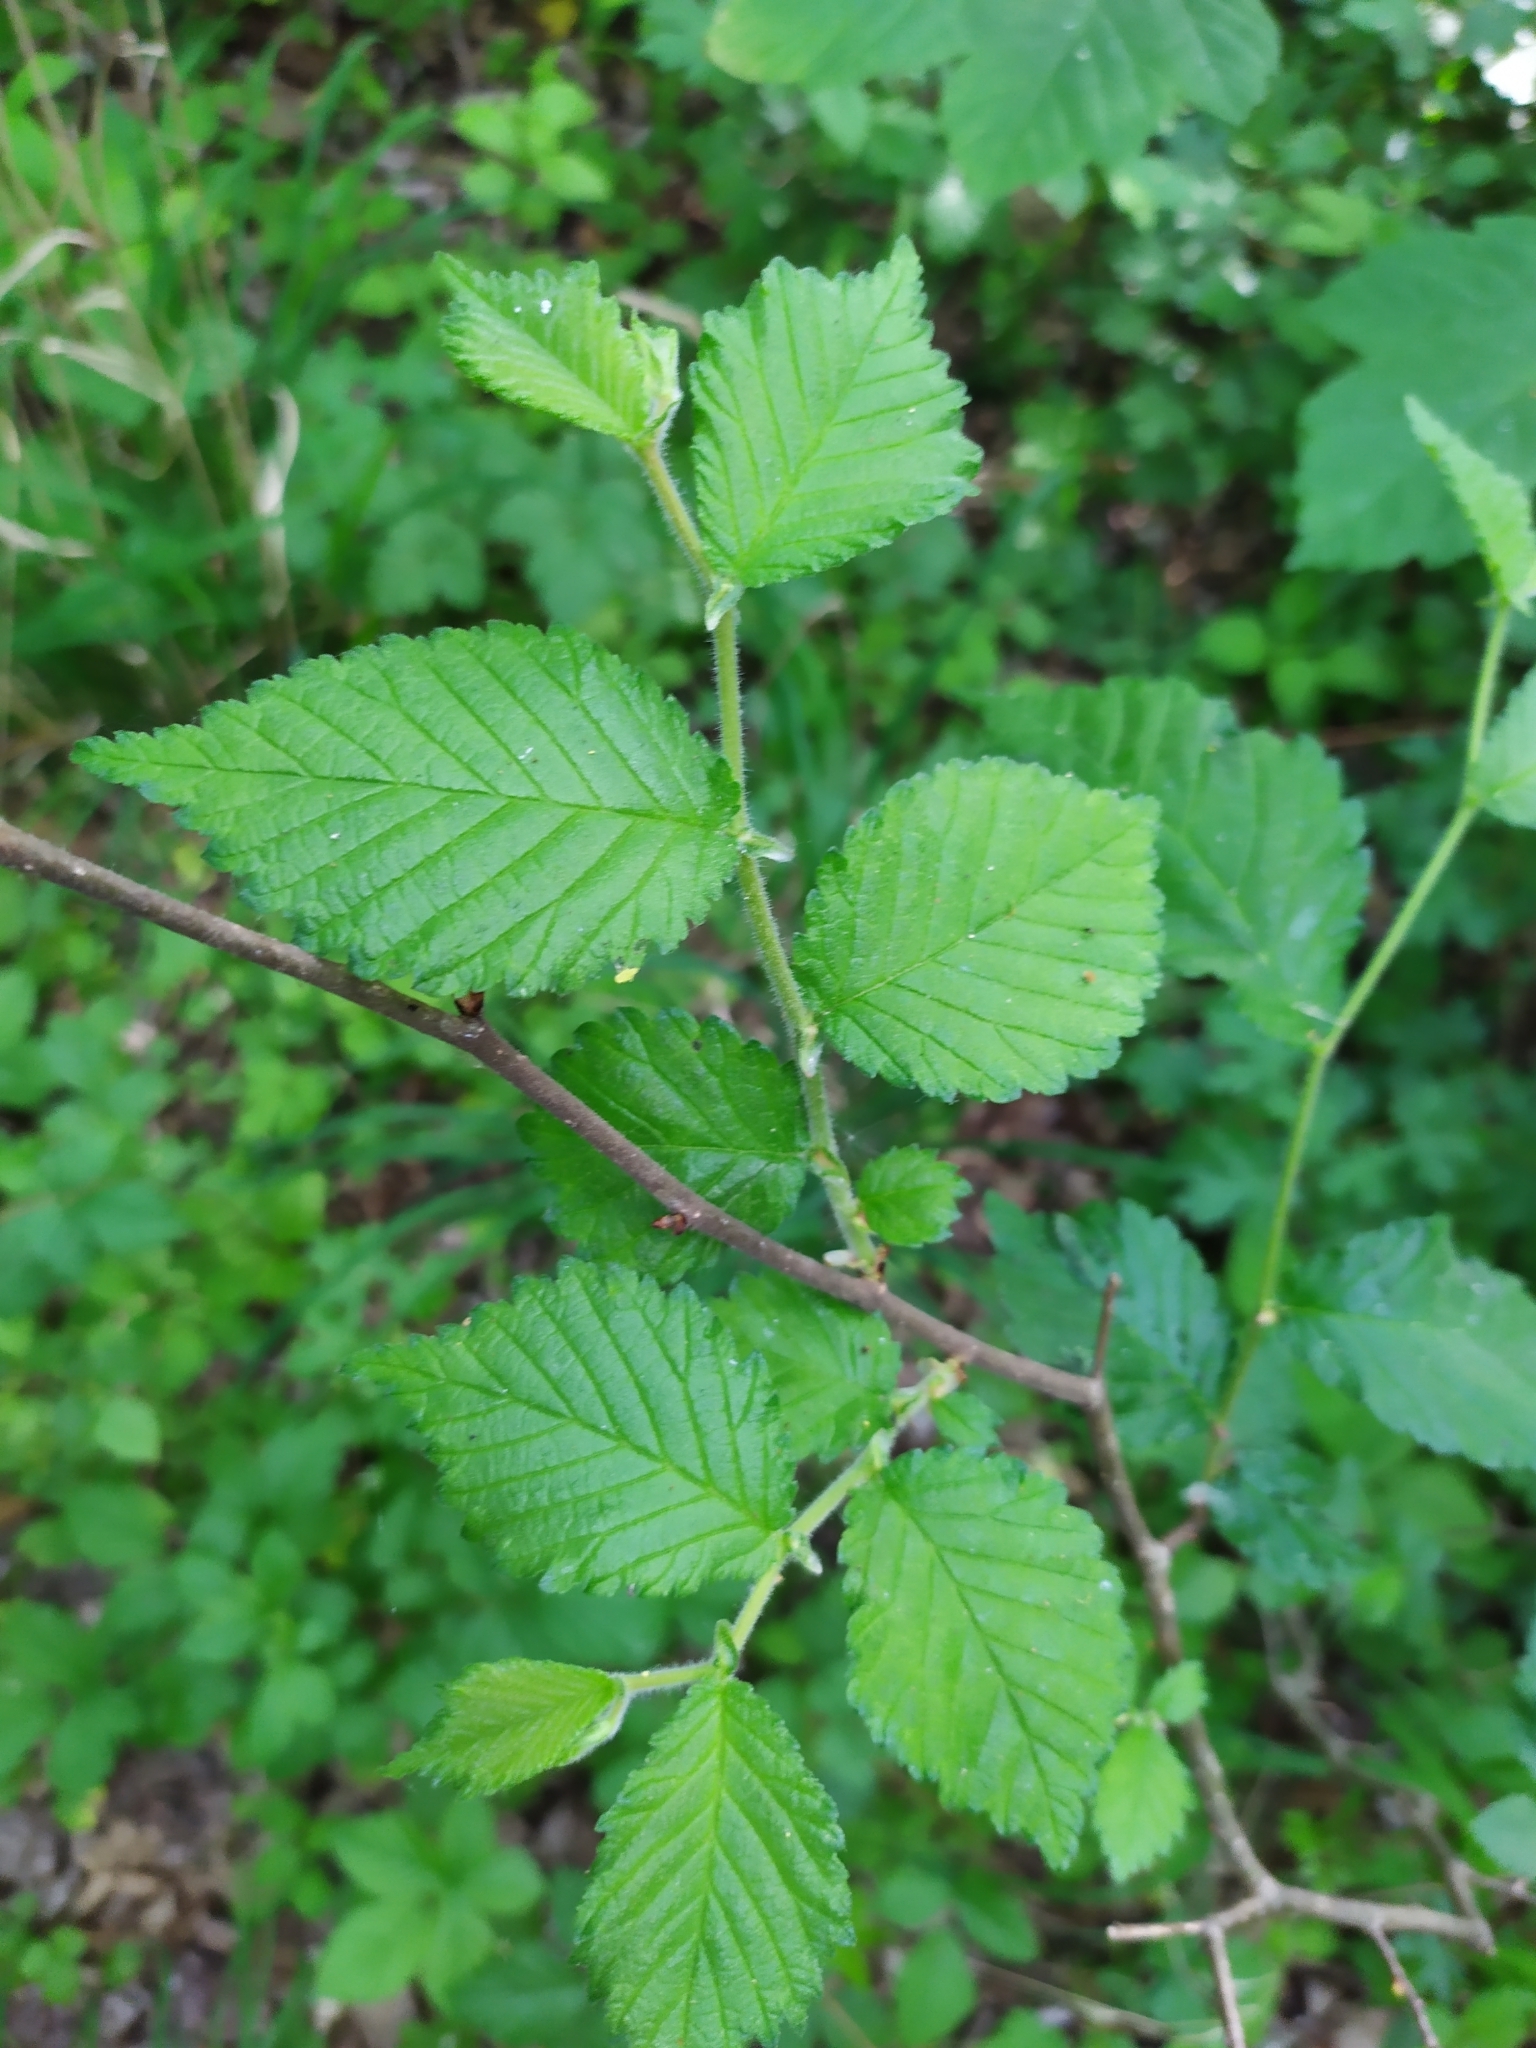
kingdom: Plantae
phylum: Tracheophyta
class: Magnoliopsida
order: Rosales
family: Ulmaceae
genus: Ulmus
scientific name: Ulmus glabra
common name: Wych elm
